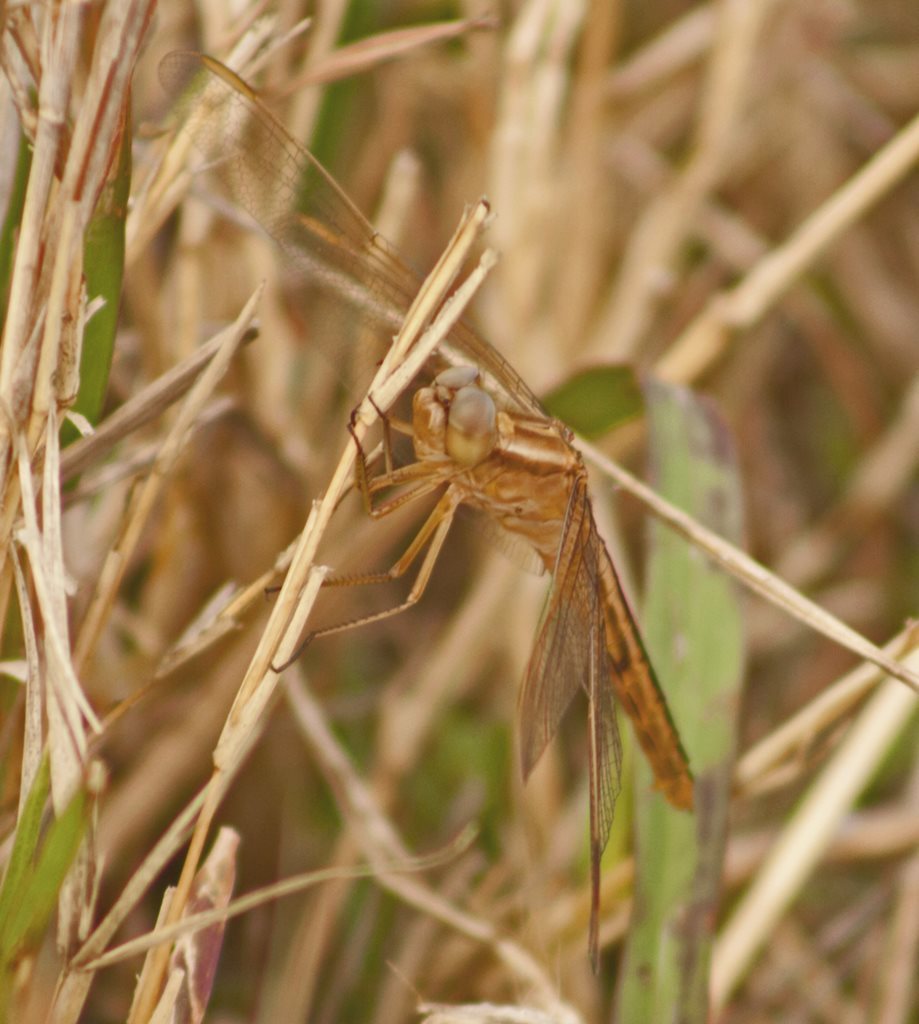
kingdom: Animalia
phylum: Arthropoda
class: Insecta
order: Odonata
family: Libellulidae
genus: Crocothemis
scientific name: Crocothemis nigrifrons
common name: Black-headed skimmer
